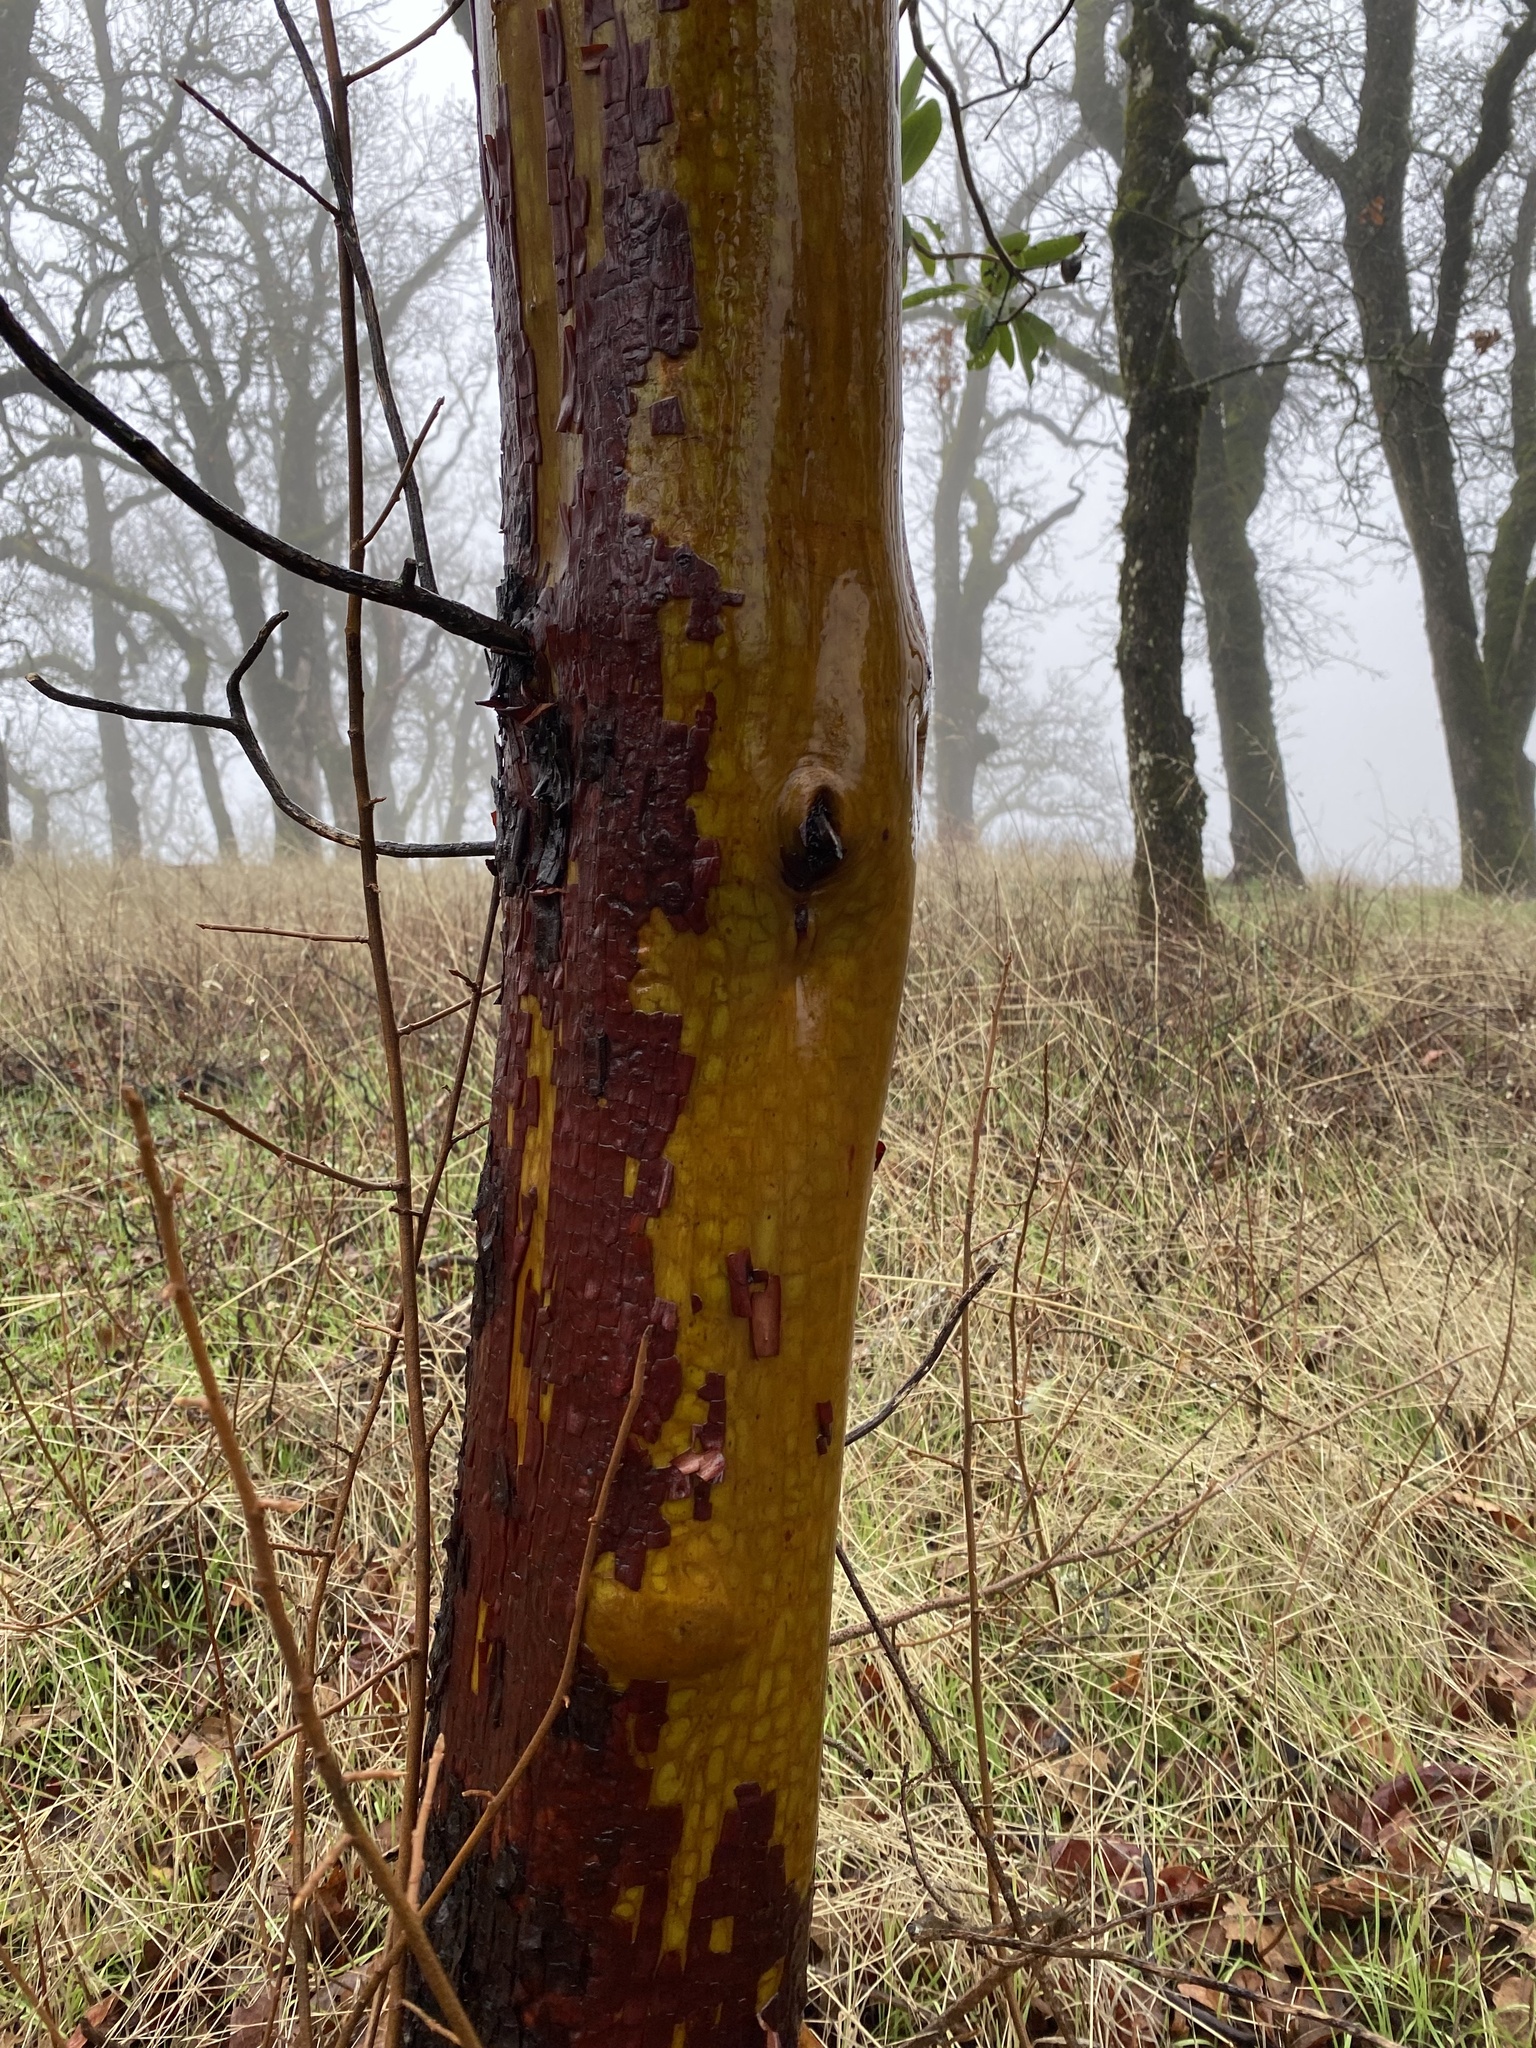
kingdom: Plantae
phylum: Tracheophyta
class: Magnoliopsida
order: Ericales
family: Ericaceae
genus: Arbutus
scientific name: Arbutus menziesii
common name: Pacific madrone
